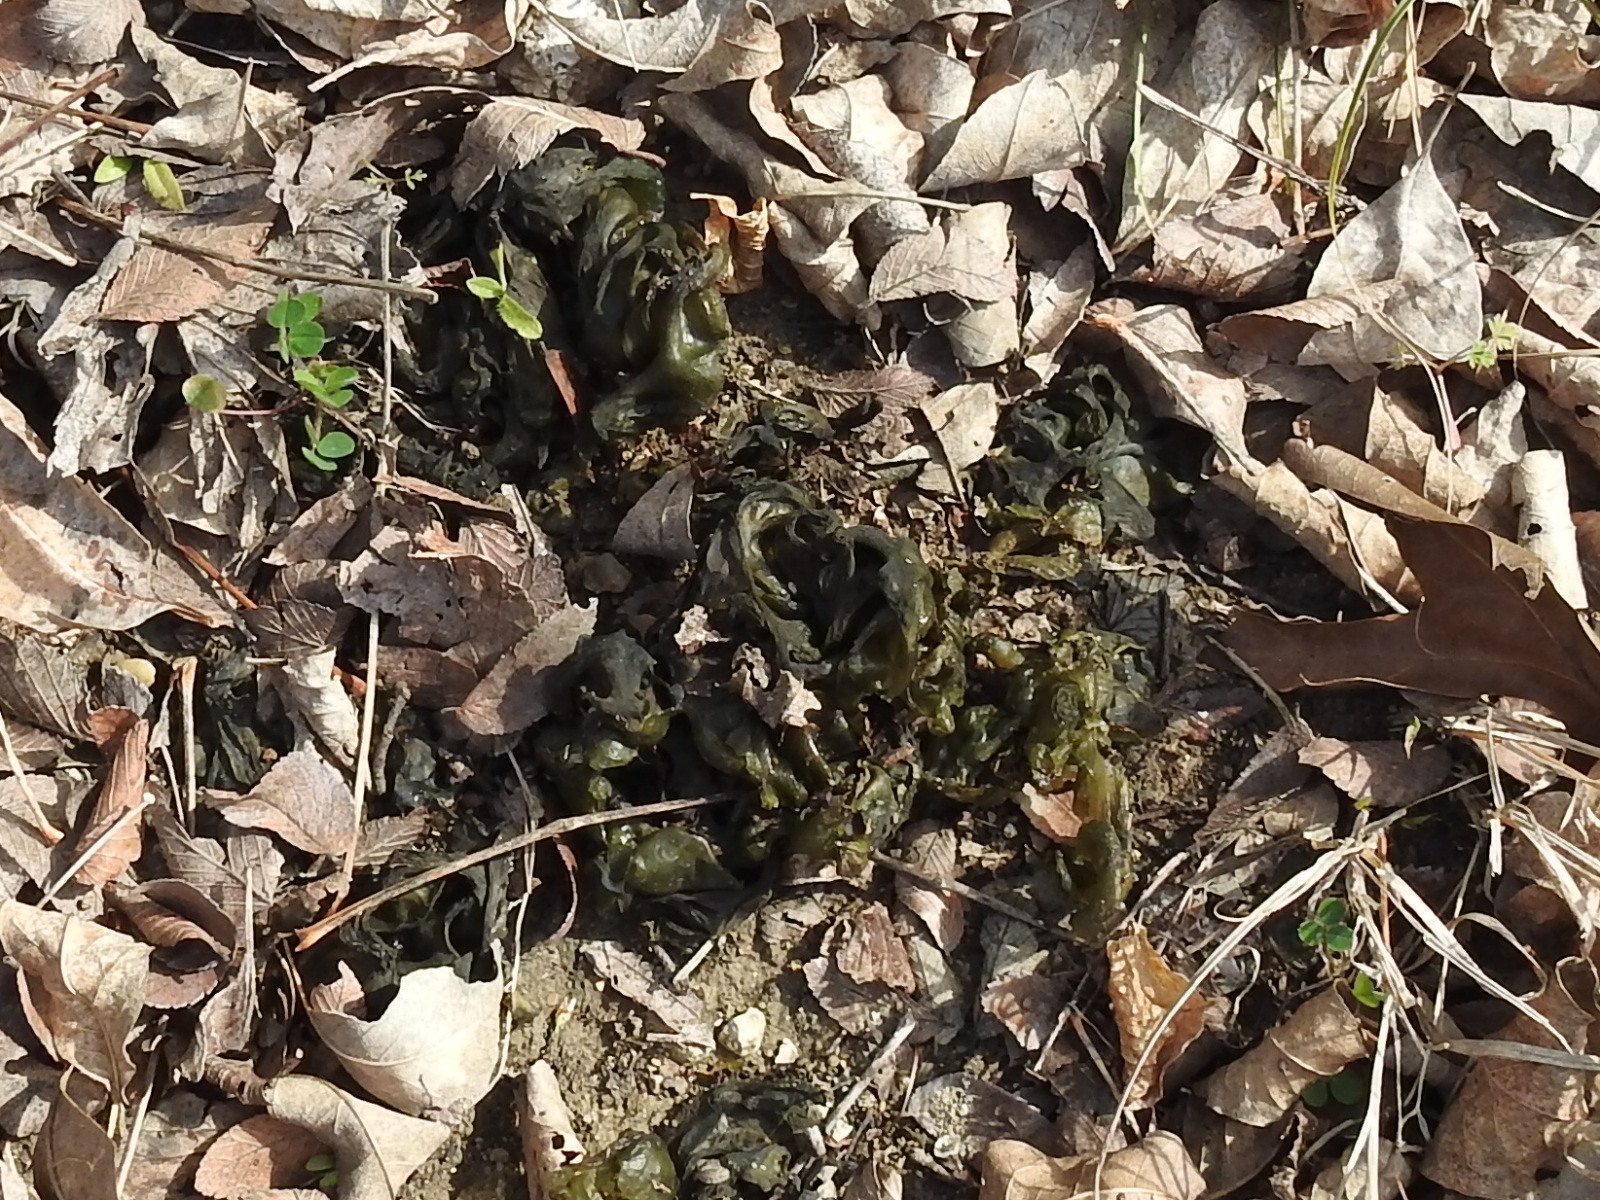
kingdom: Bacteria
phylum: Cyanobacteria
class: Cyanobacteriia
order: Cyanobacteriales
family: Nostocaceae
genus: Nostoc
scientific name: Nostoc commune
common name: Star jelly
